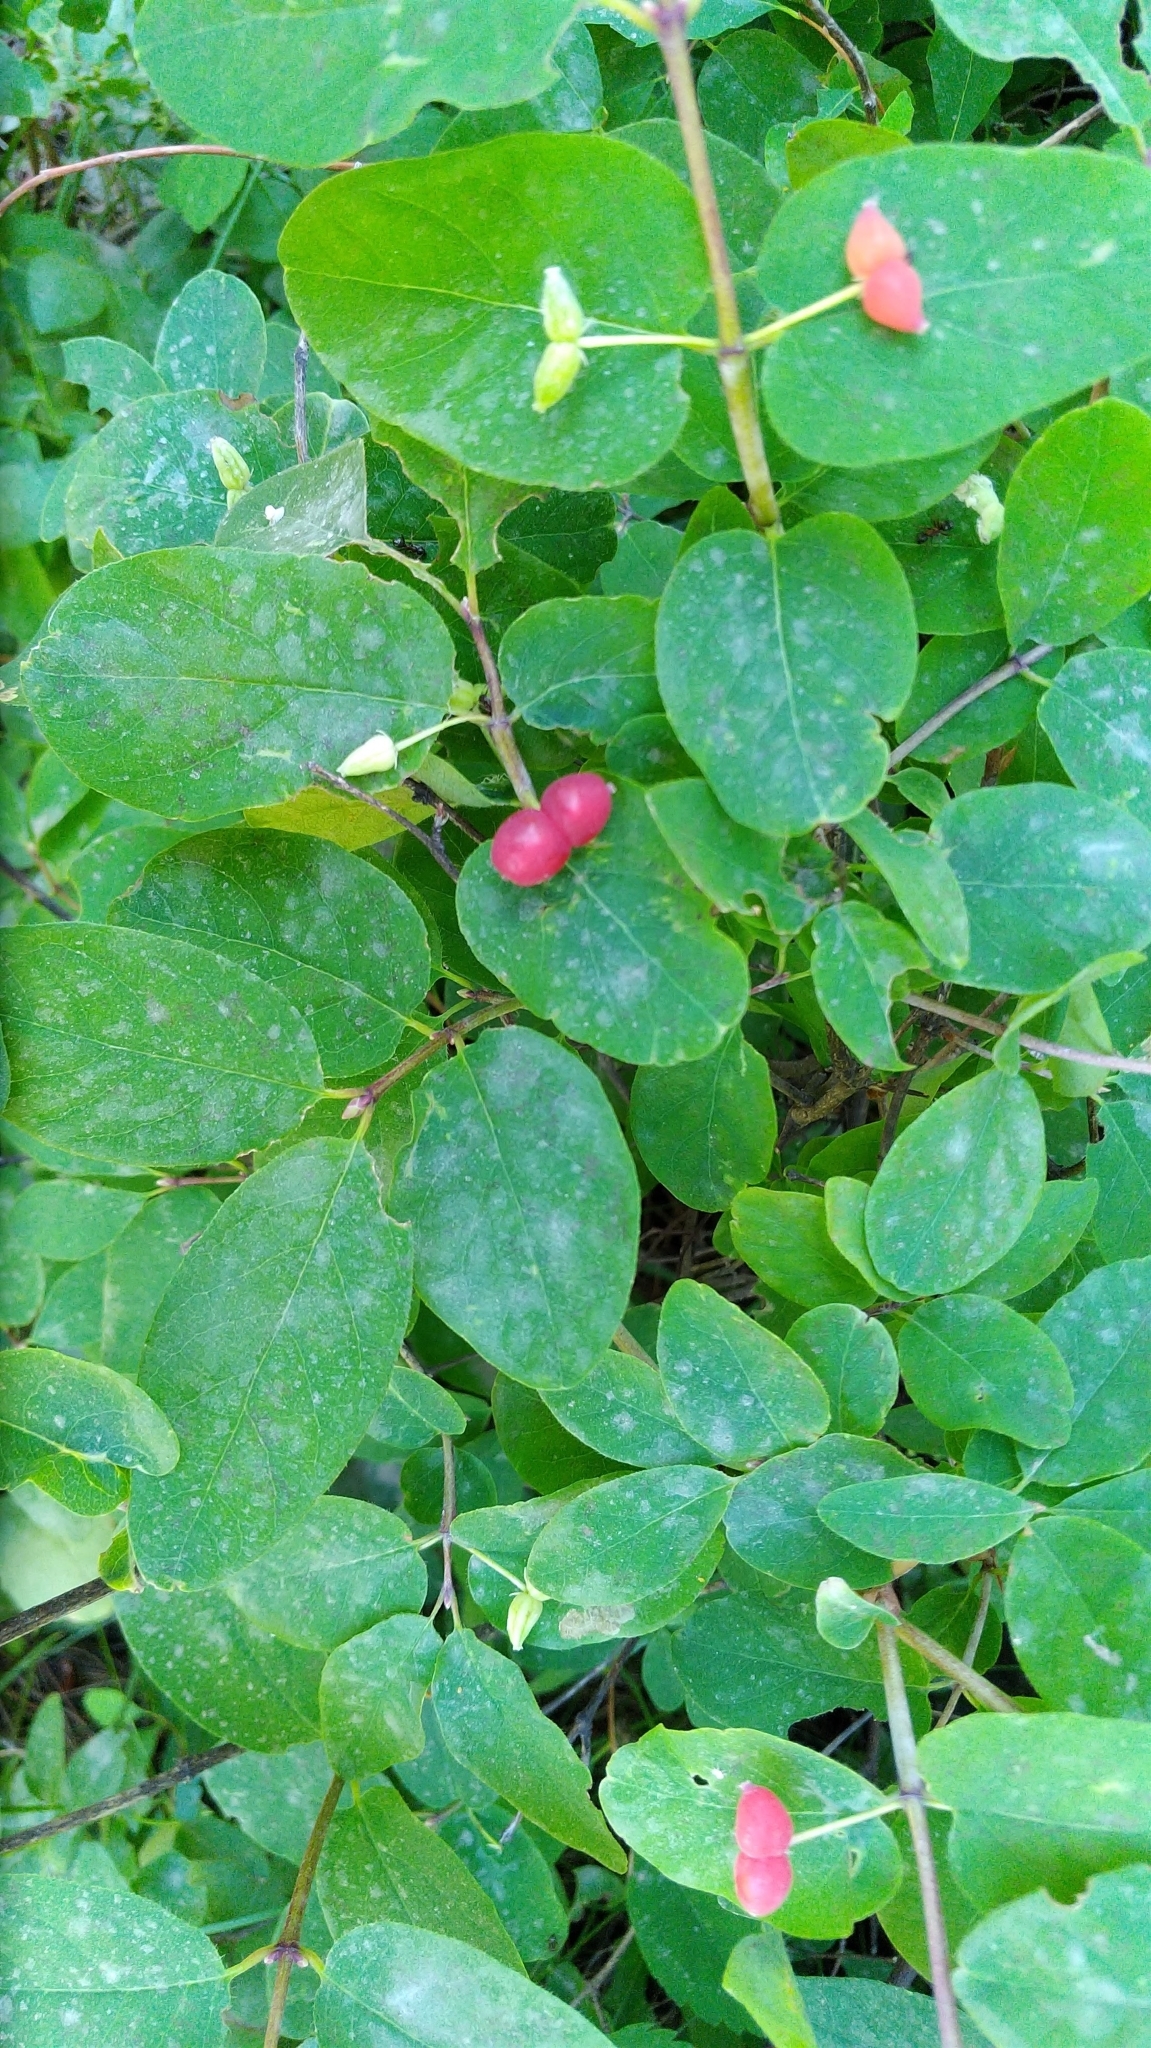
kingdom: Plantae
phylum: Tracheophyta
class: Magnoliopsida
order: Dipsacales
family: Caprifoliaceae
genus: Lonicera
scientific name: Lonicera utahensis
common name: Utah honeysuckle
